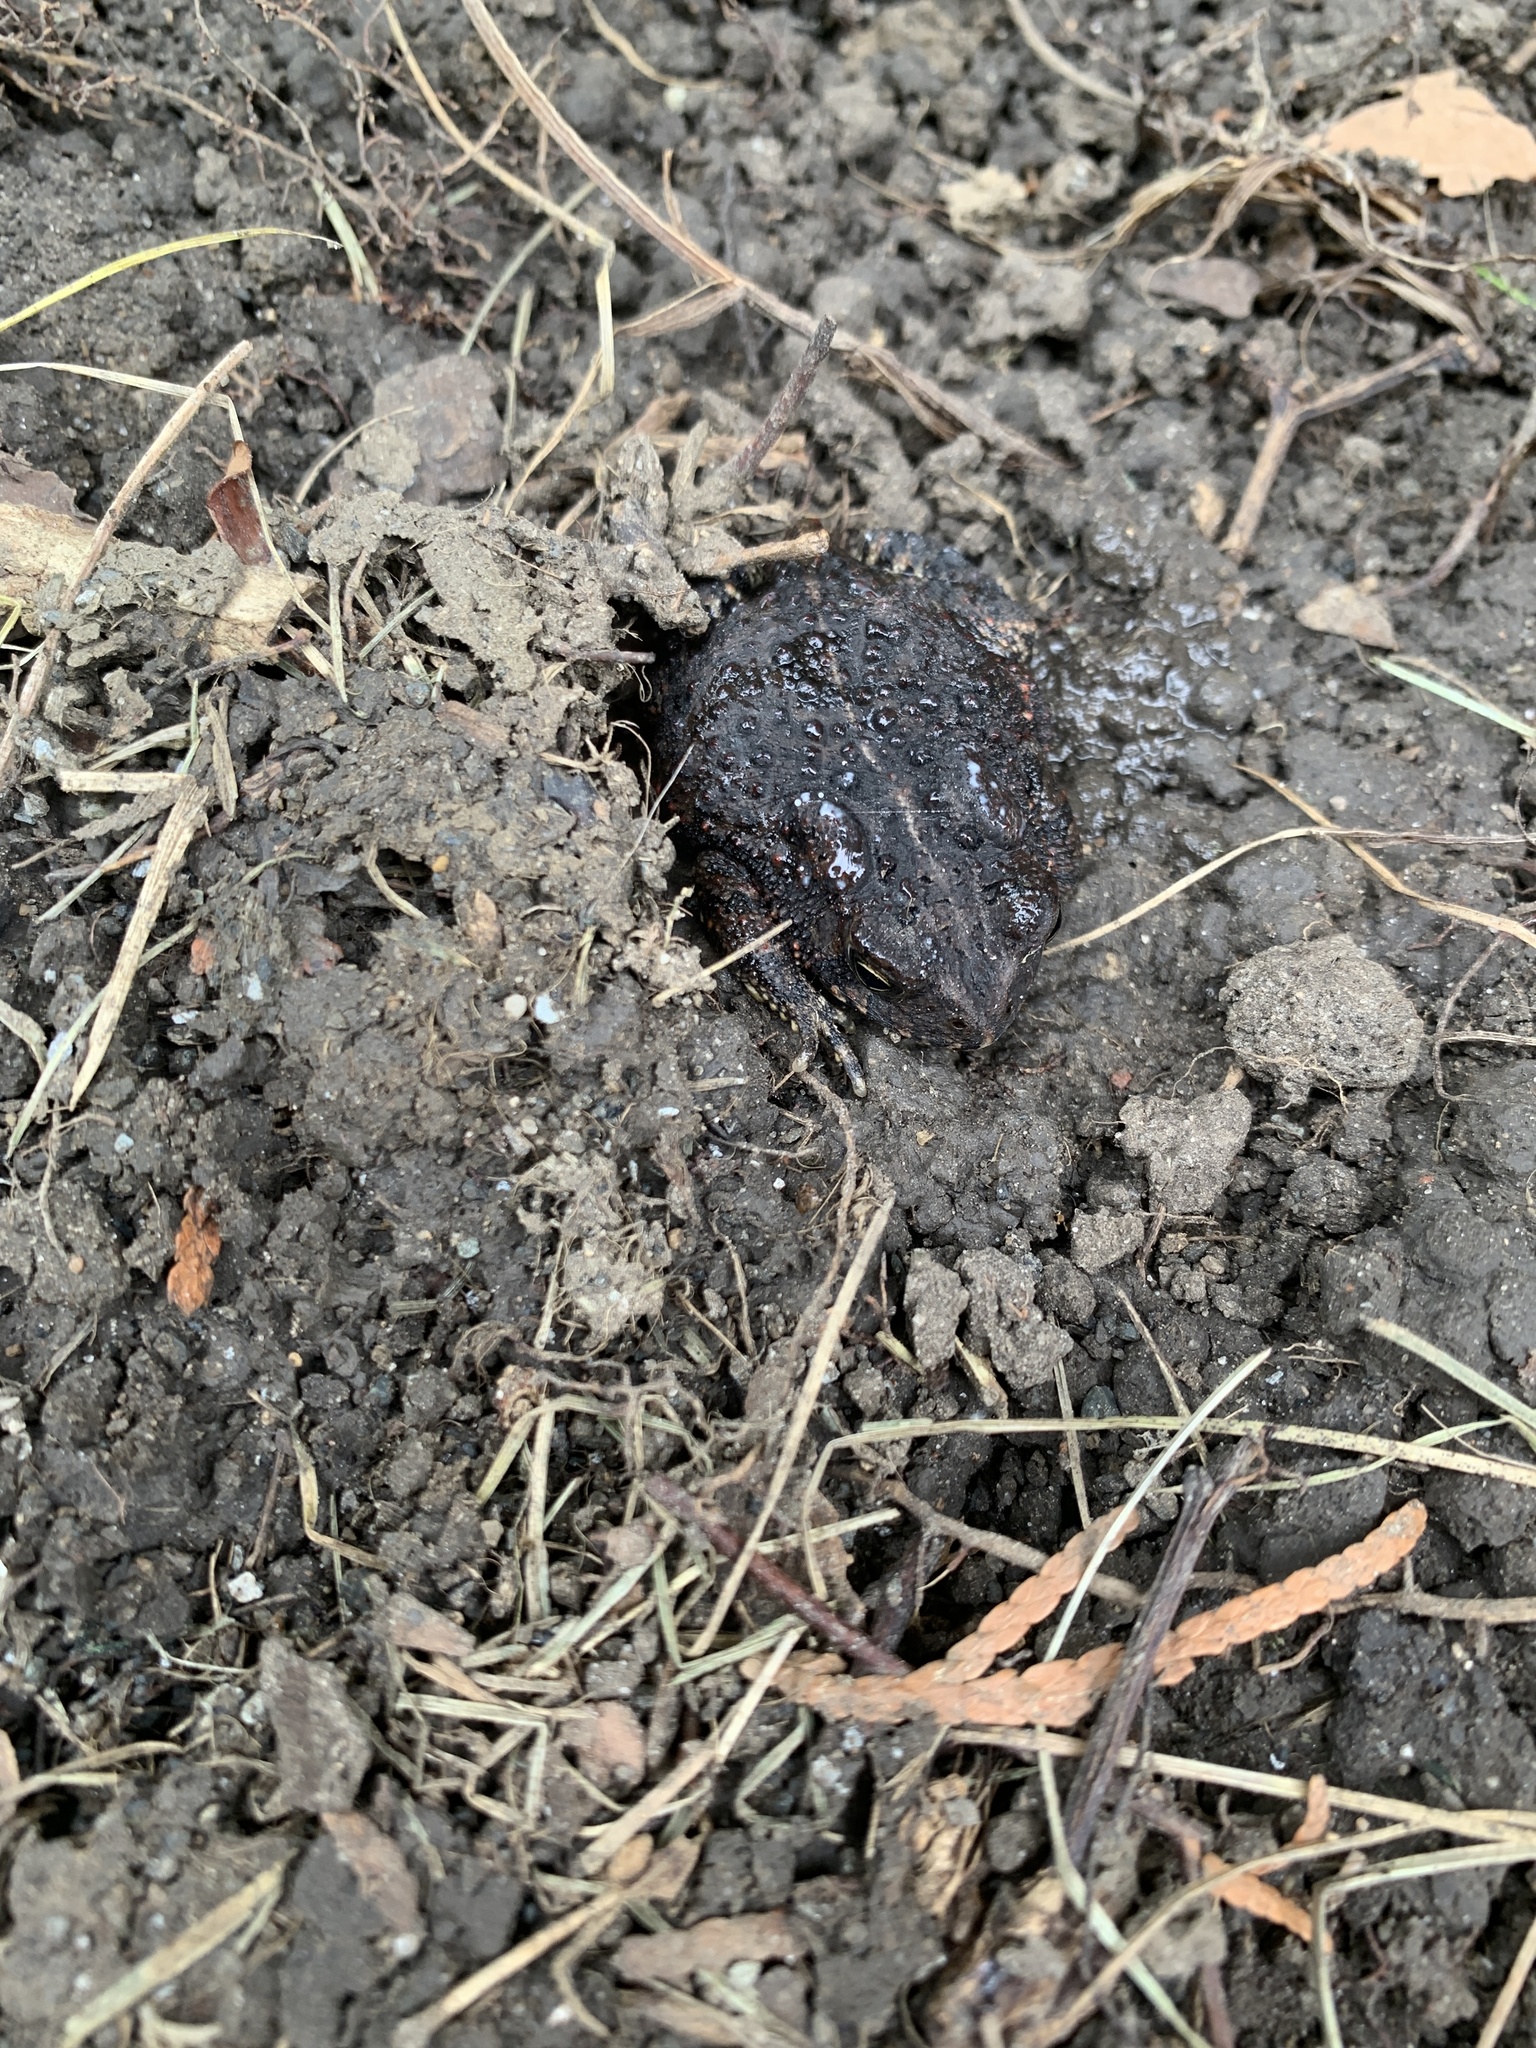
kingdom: Animalia
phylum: Chordata
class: Amphibia
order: Anura
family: Bufonidae
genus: Anaxyrus
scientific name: Anaxyrus americanus
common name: American toad
